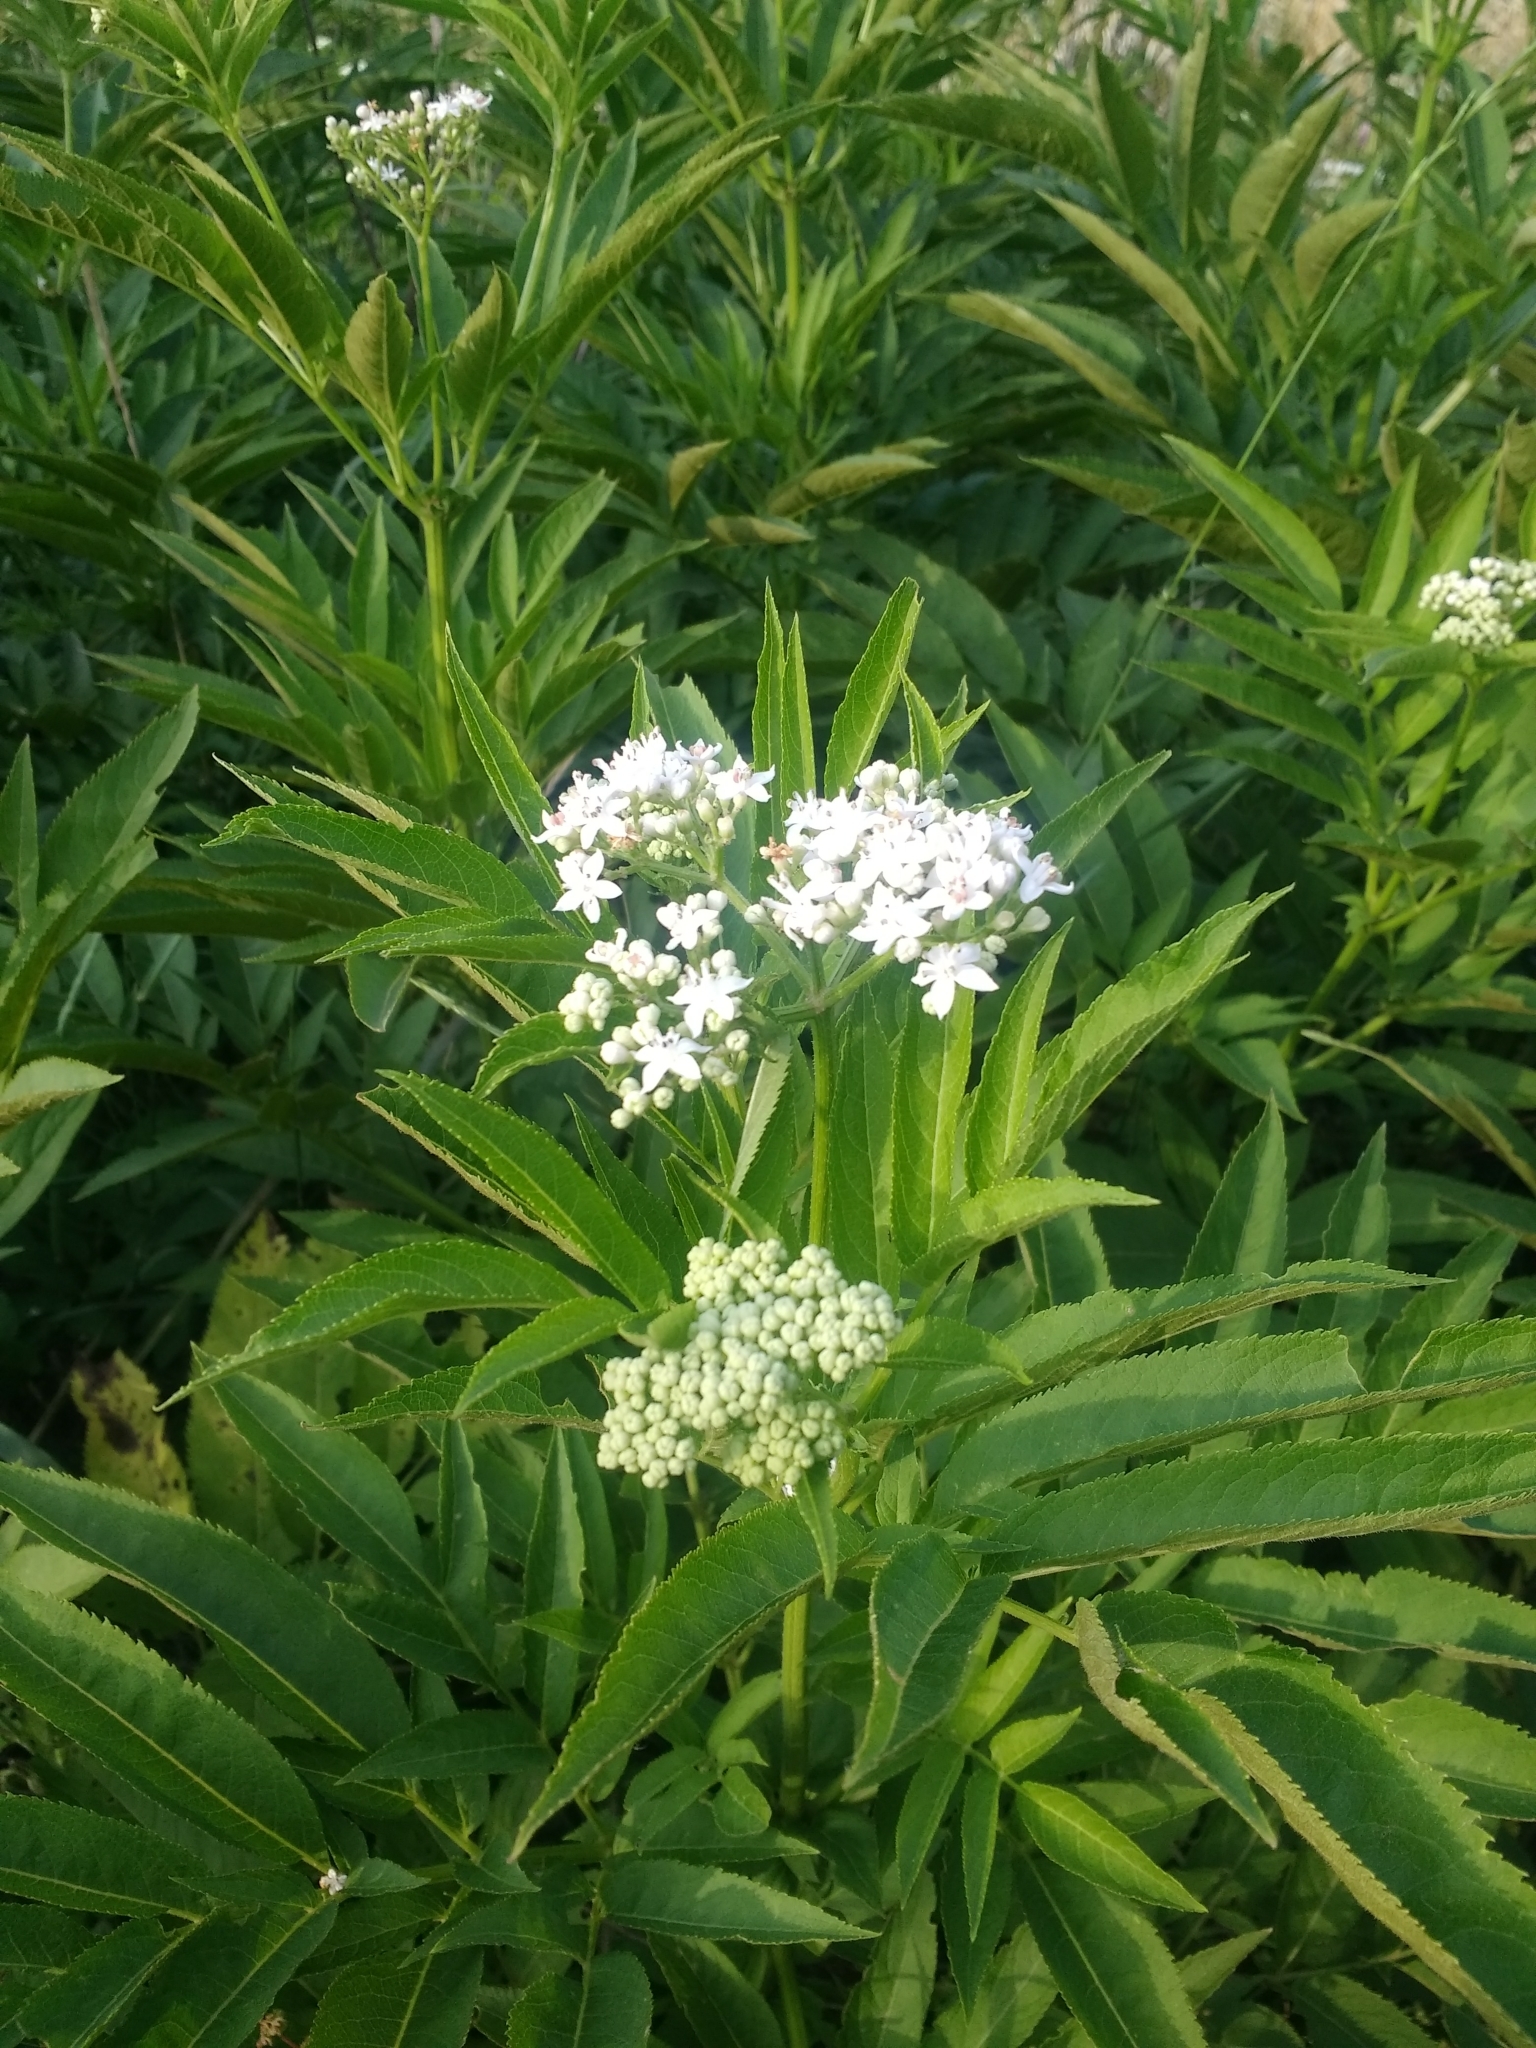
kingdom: Plantae
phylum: Tracheophyta
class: Magnoliopsida
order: Dipsacales
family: Viburnaceae
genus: Sambucus
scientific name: Sambucus ebulus
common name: Dwarf elder
